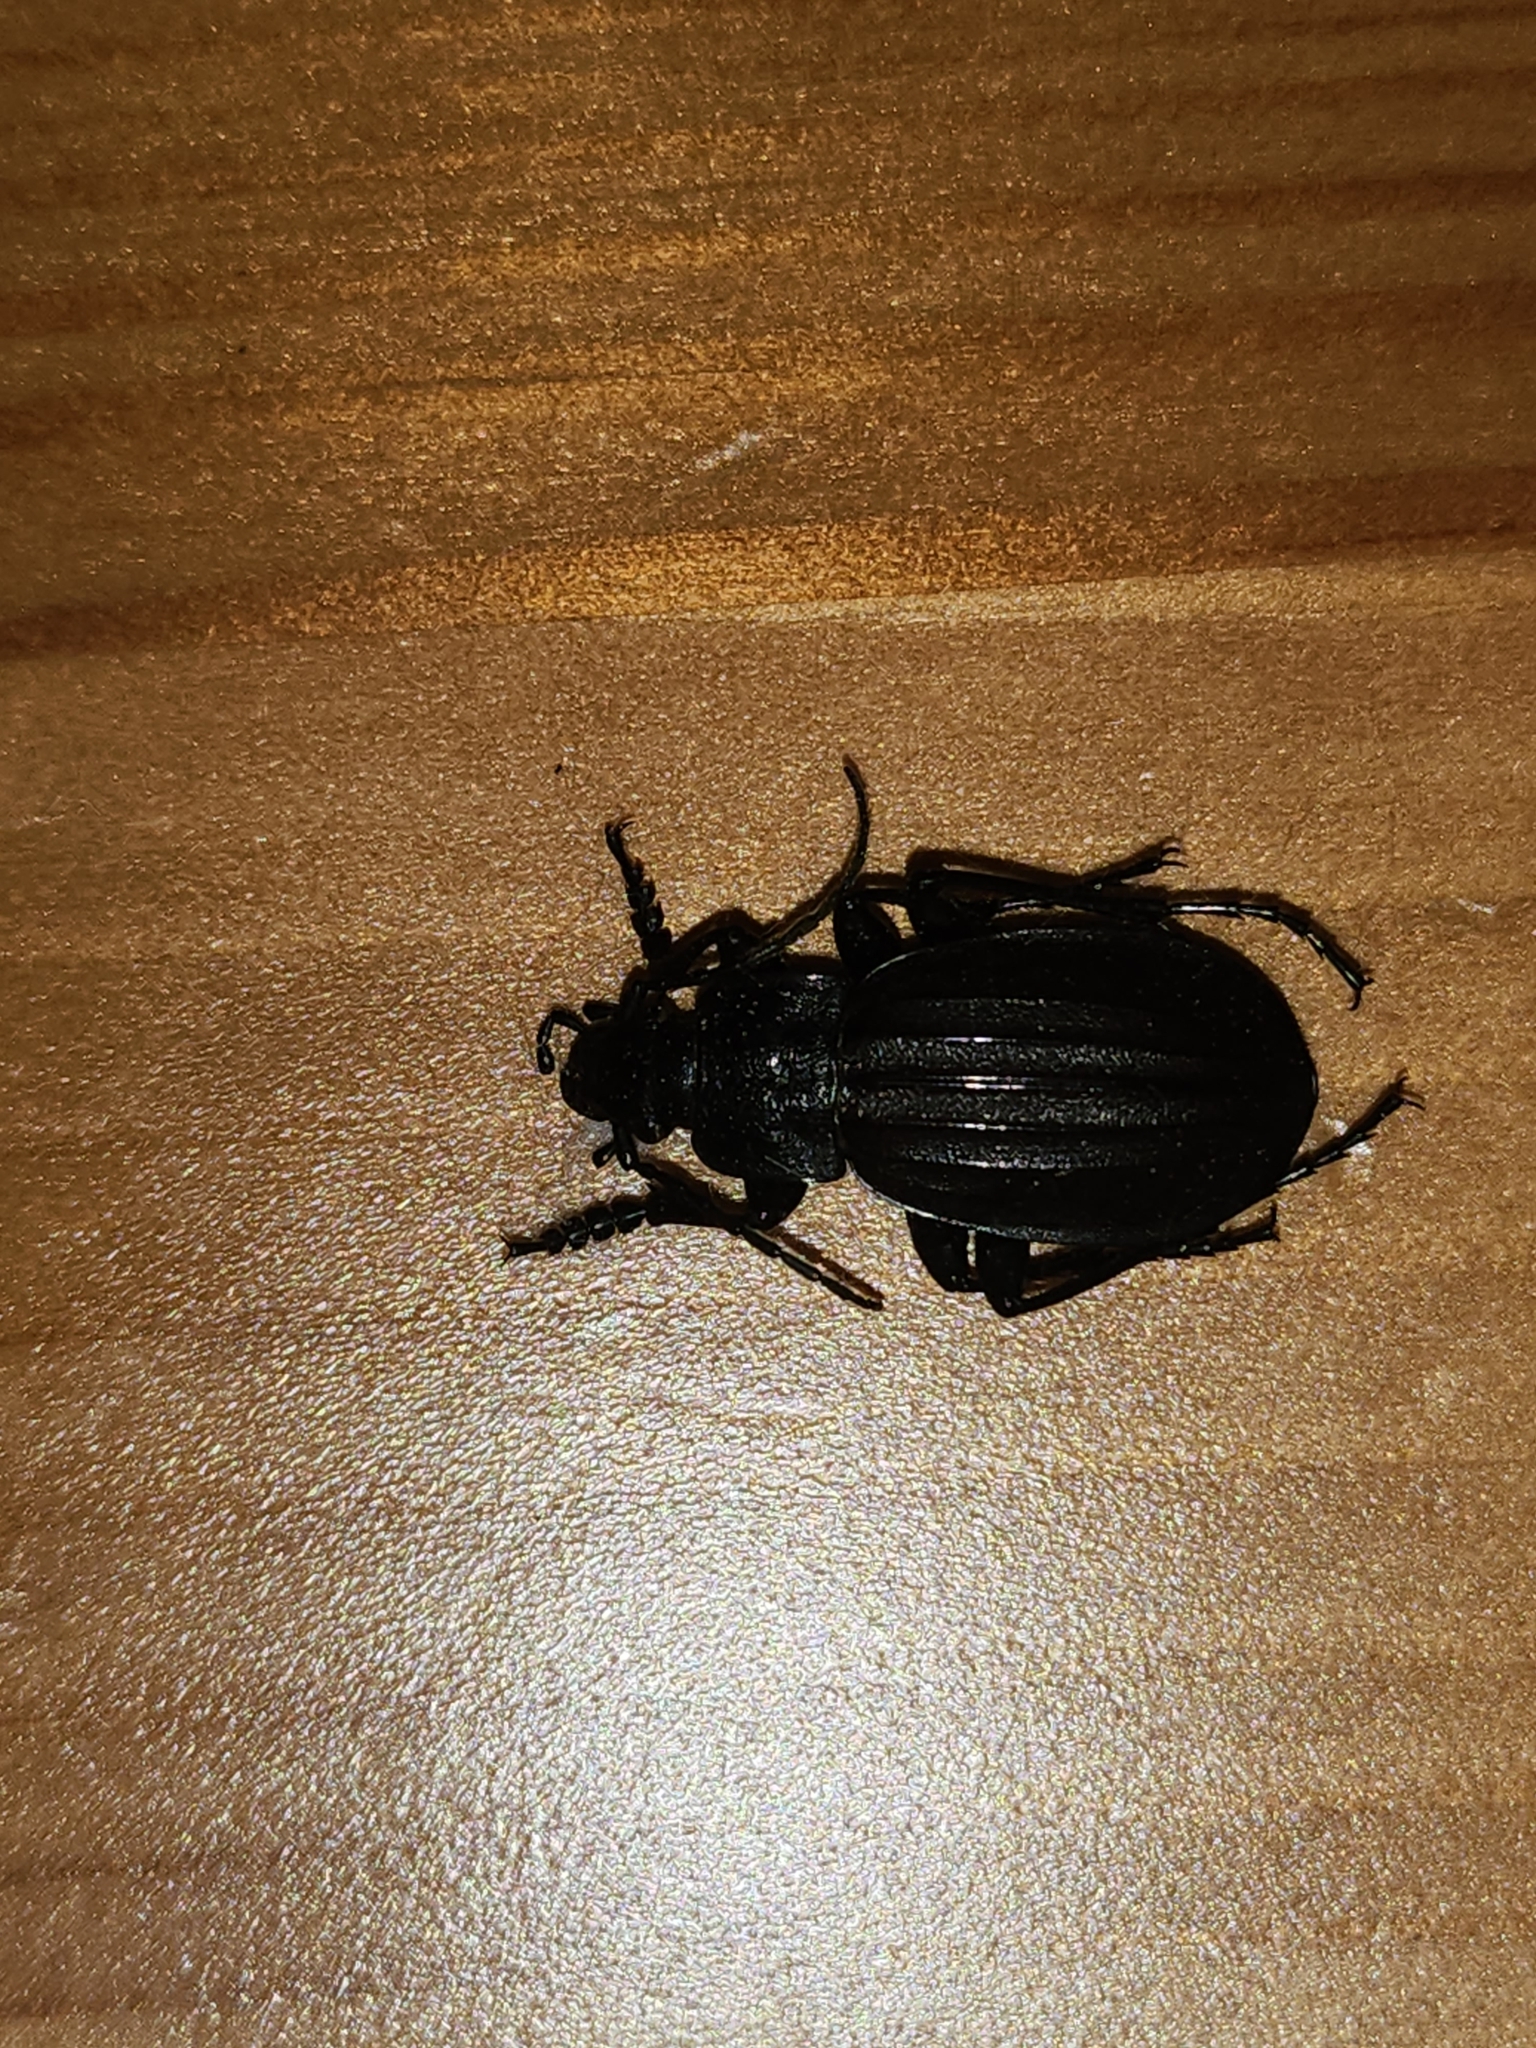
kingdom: Animalia
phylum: Arthropoda
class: Insecta
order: Coleoptera
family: Carabidae
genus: Carabus
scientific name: Carabus canaliculatus
